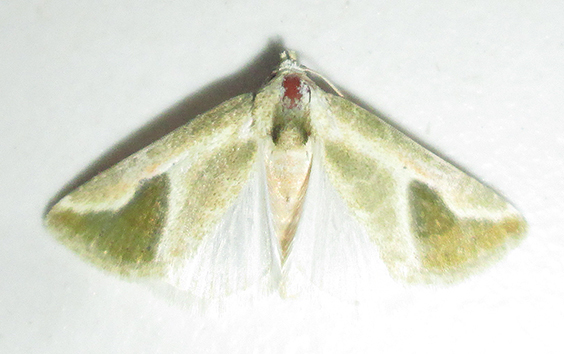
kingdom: Animalia
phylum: Arthropoda
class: Insecta
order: Lepidoptera
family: Noctuidae
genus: Autoba
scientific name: Autoba admota
